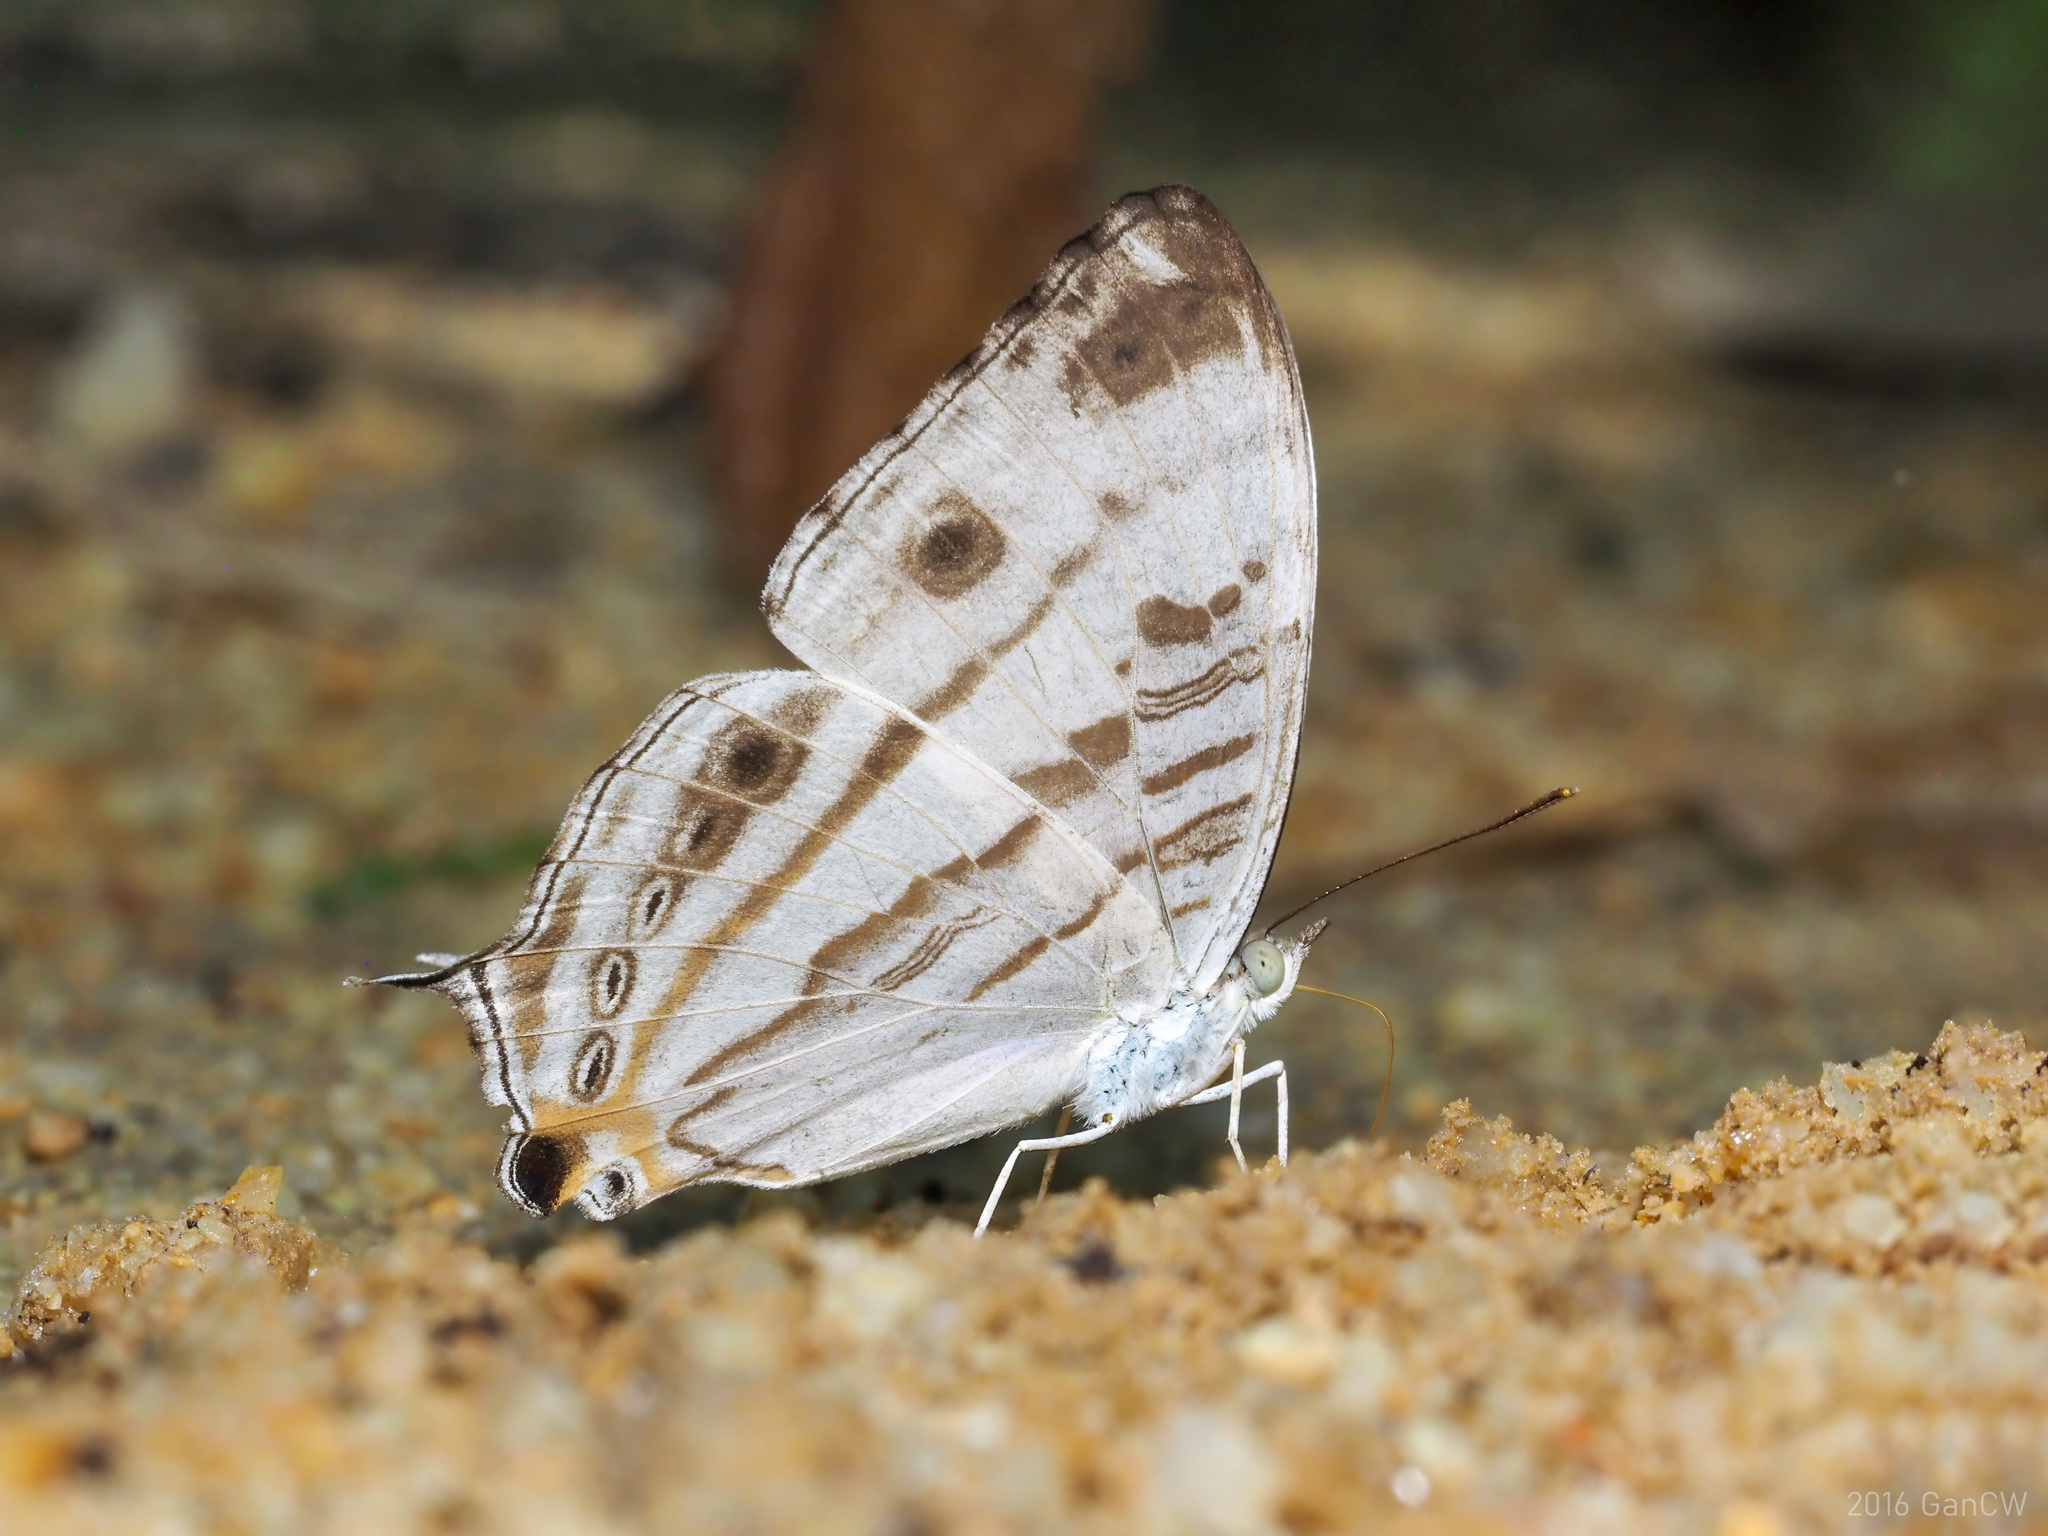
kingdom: Animalia
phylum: Arthropoda
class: Insecta
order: Lepidoptera
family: Nymphalidae
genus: Cyrestis
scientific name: Cyrestis cocles
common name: Marbled map
